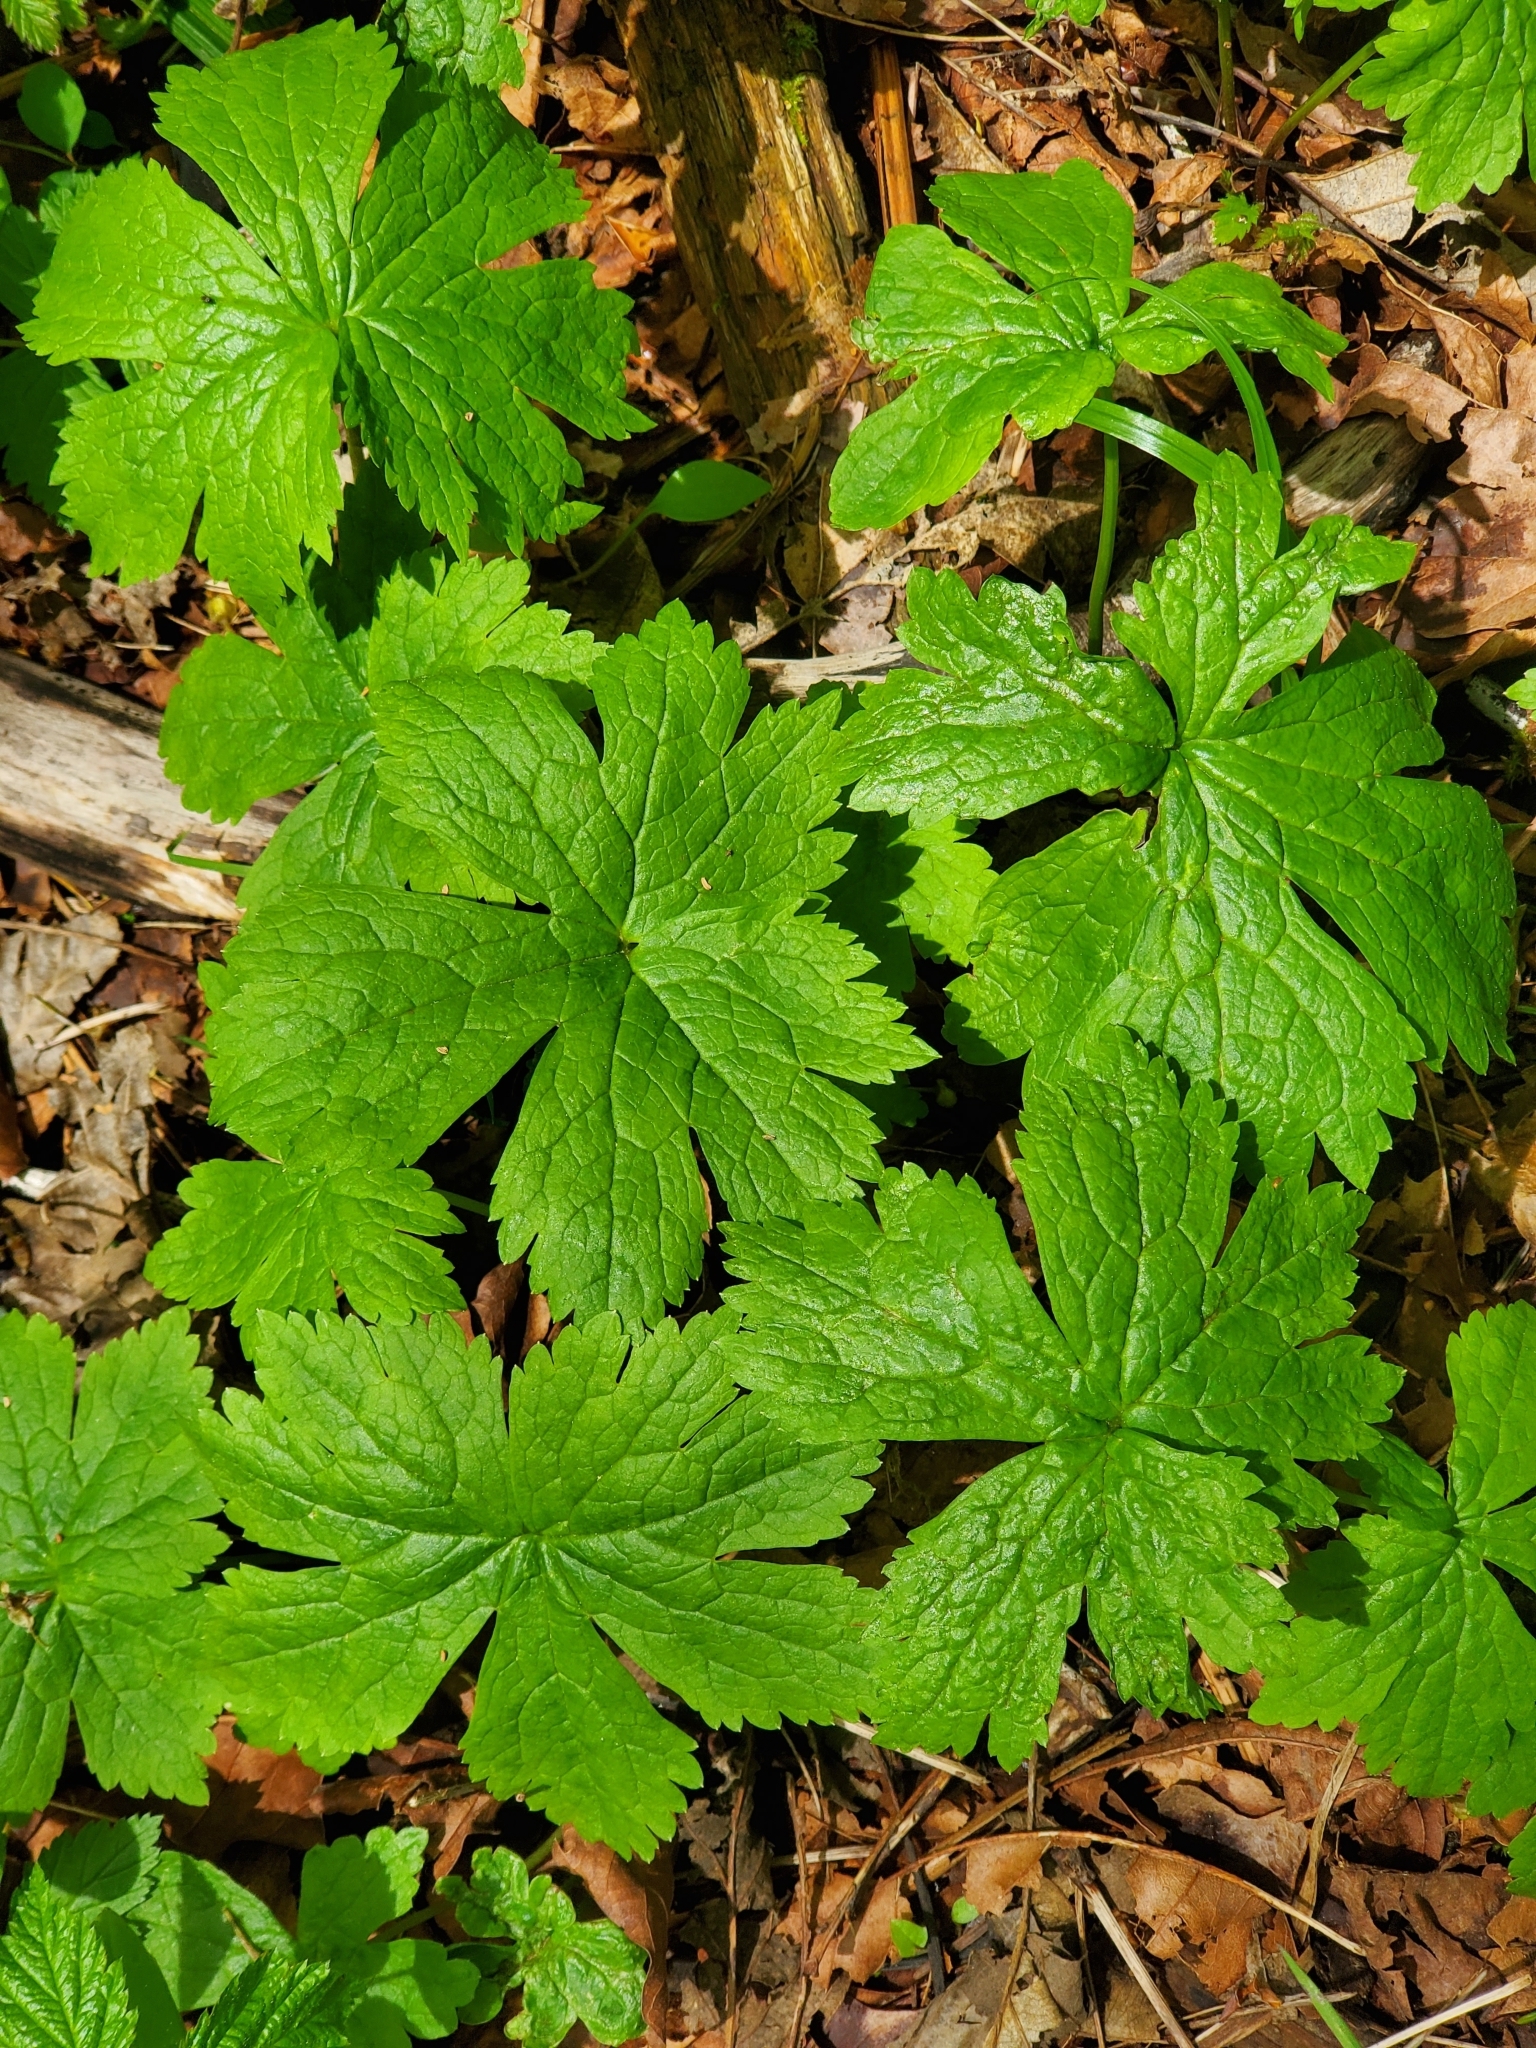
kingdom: Plantae
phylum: Tracheophyta
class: Magnoliopsida
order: Ranunculales
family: Ranunculaceae
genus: Trautvetteria
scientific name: Trautvetteria carolinensis
